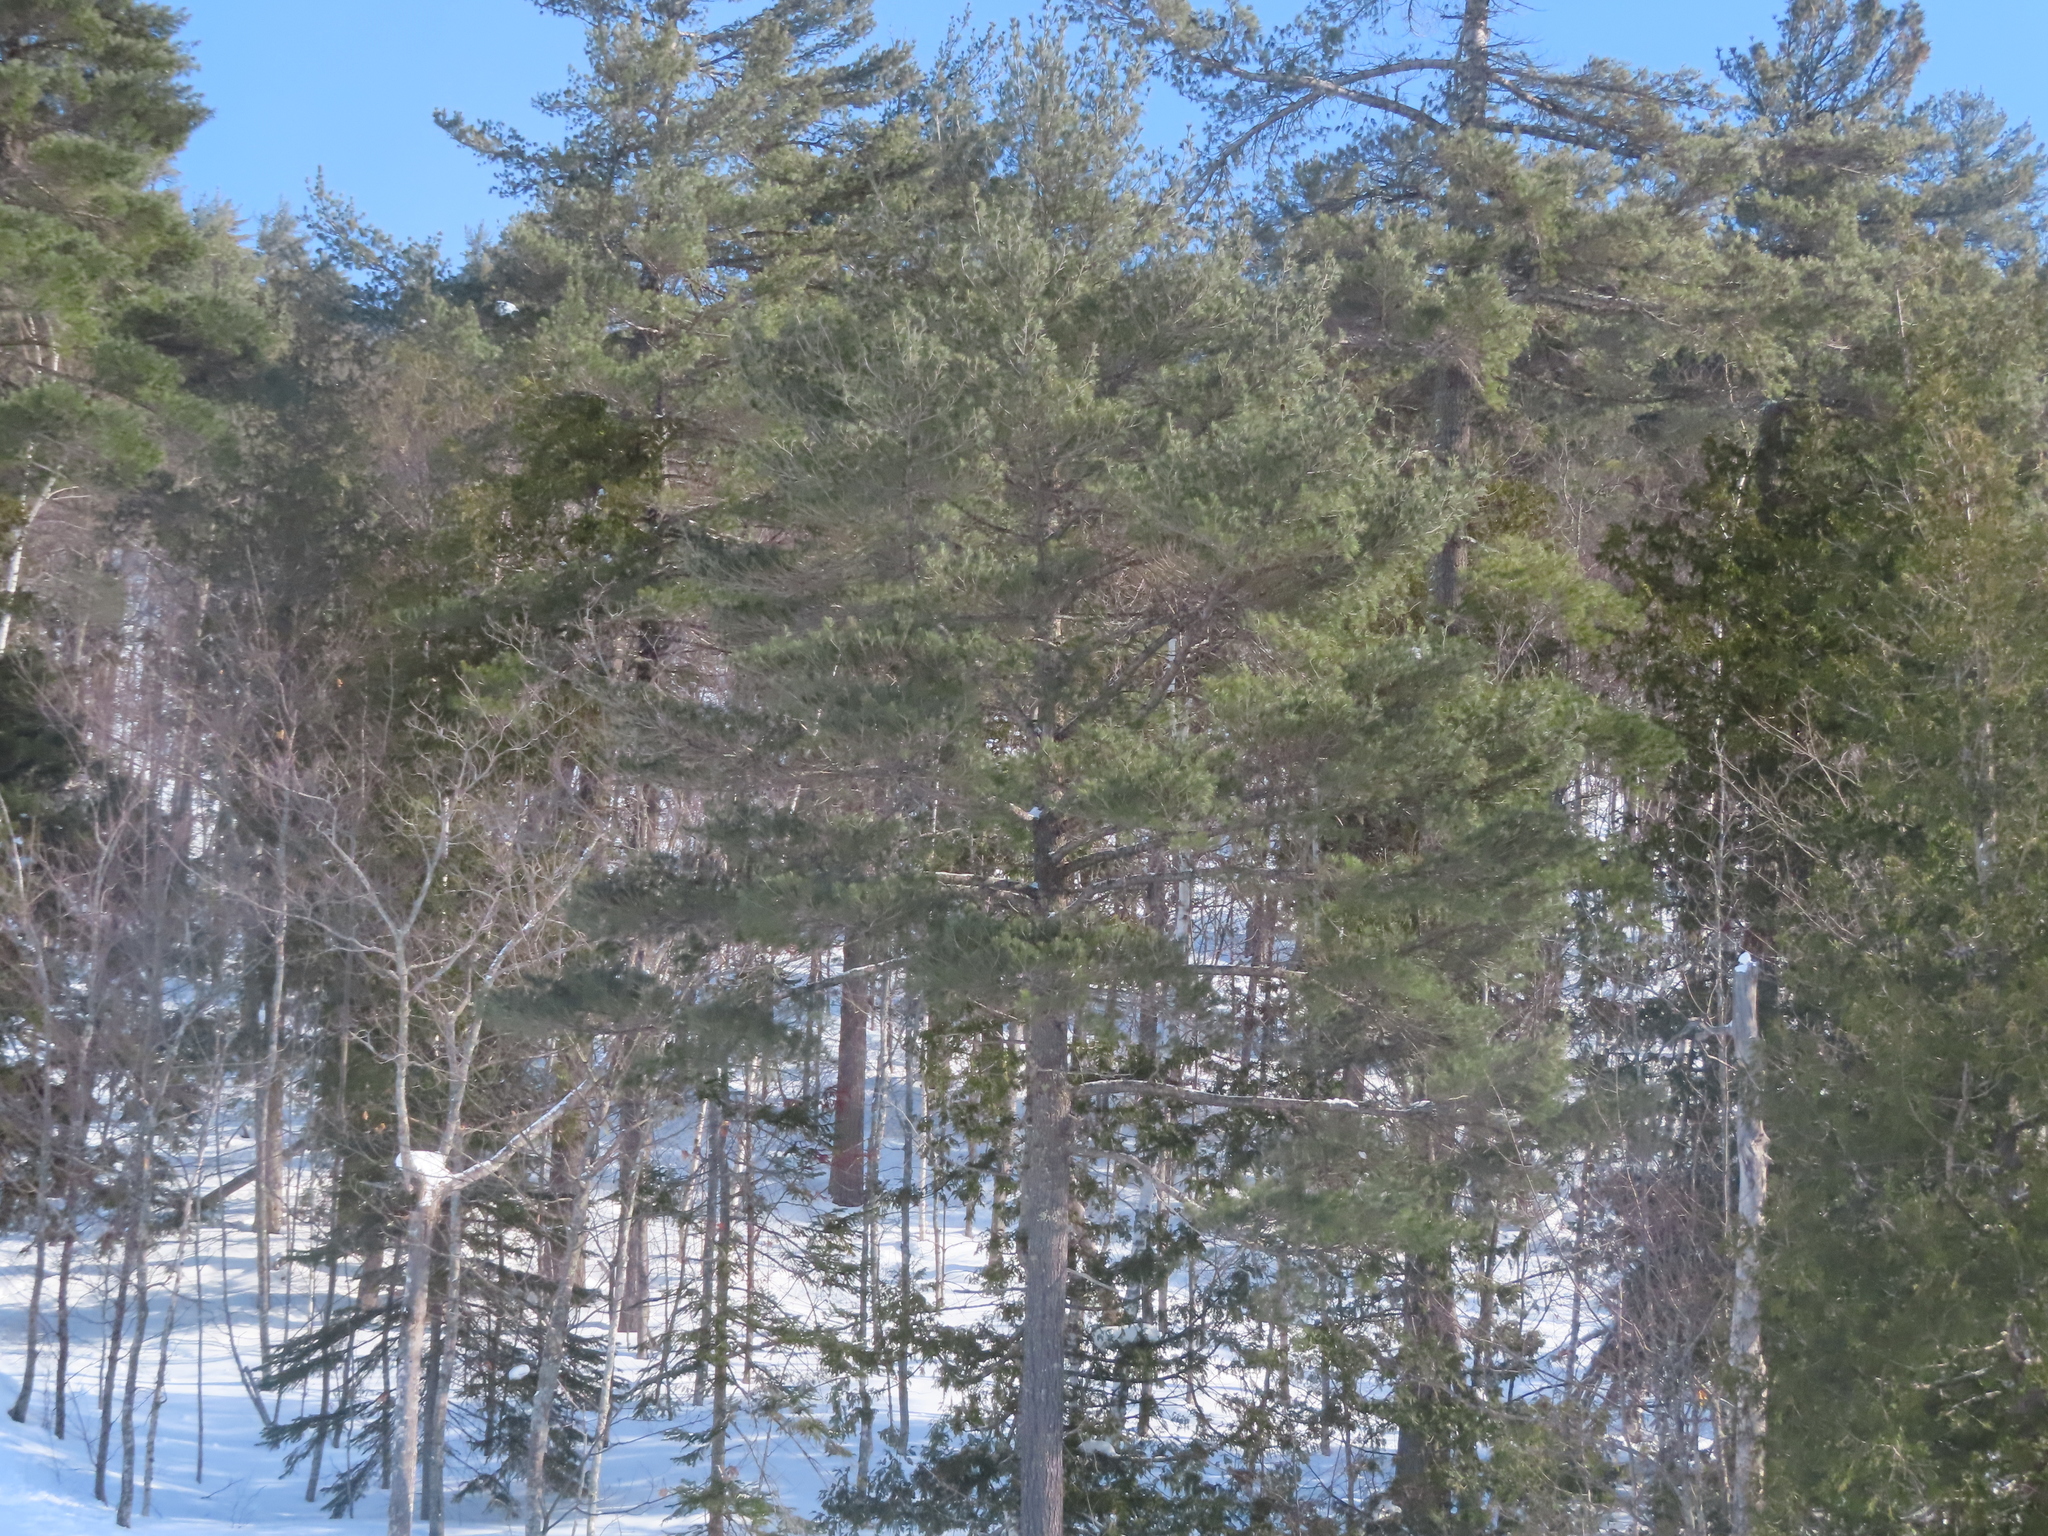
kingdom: Plantae
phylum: Tracheophyta
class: Pinopsida
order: Pinales
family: Pinaceae
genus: Pinus
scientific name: Pinus strobus
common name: Weymouth pine
